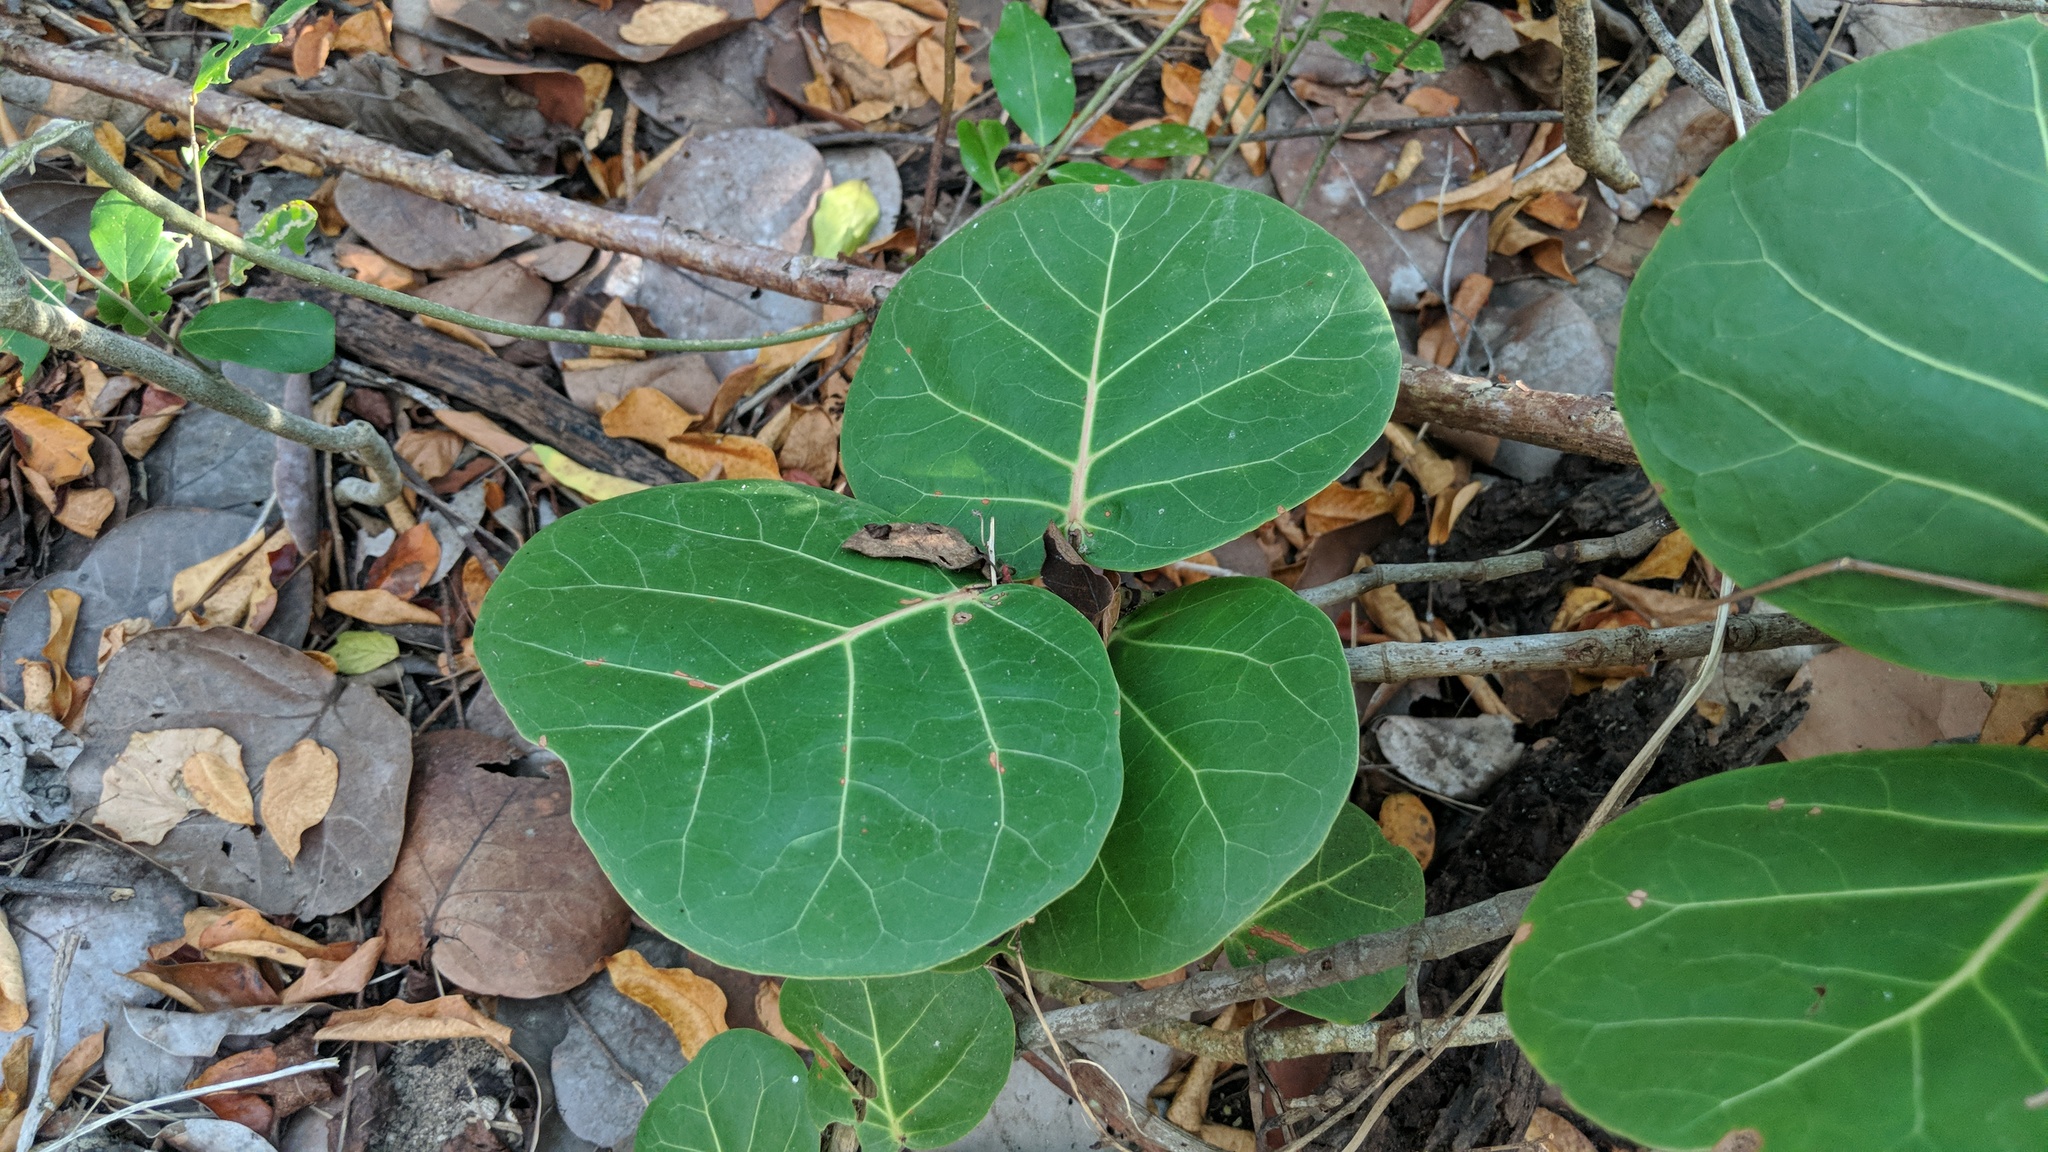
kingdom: Plantae
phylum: Tracheophyta
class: Magnoliopsida
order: Caryophyllales
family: Polygonaceae
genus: Coccoloba
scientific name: Coccoloba uvifera
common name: Seagrape
